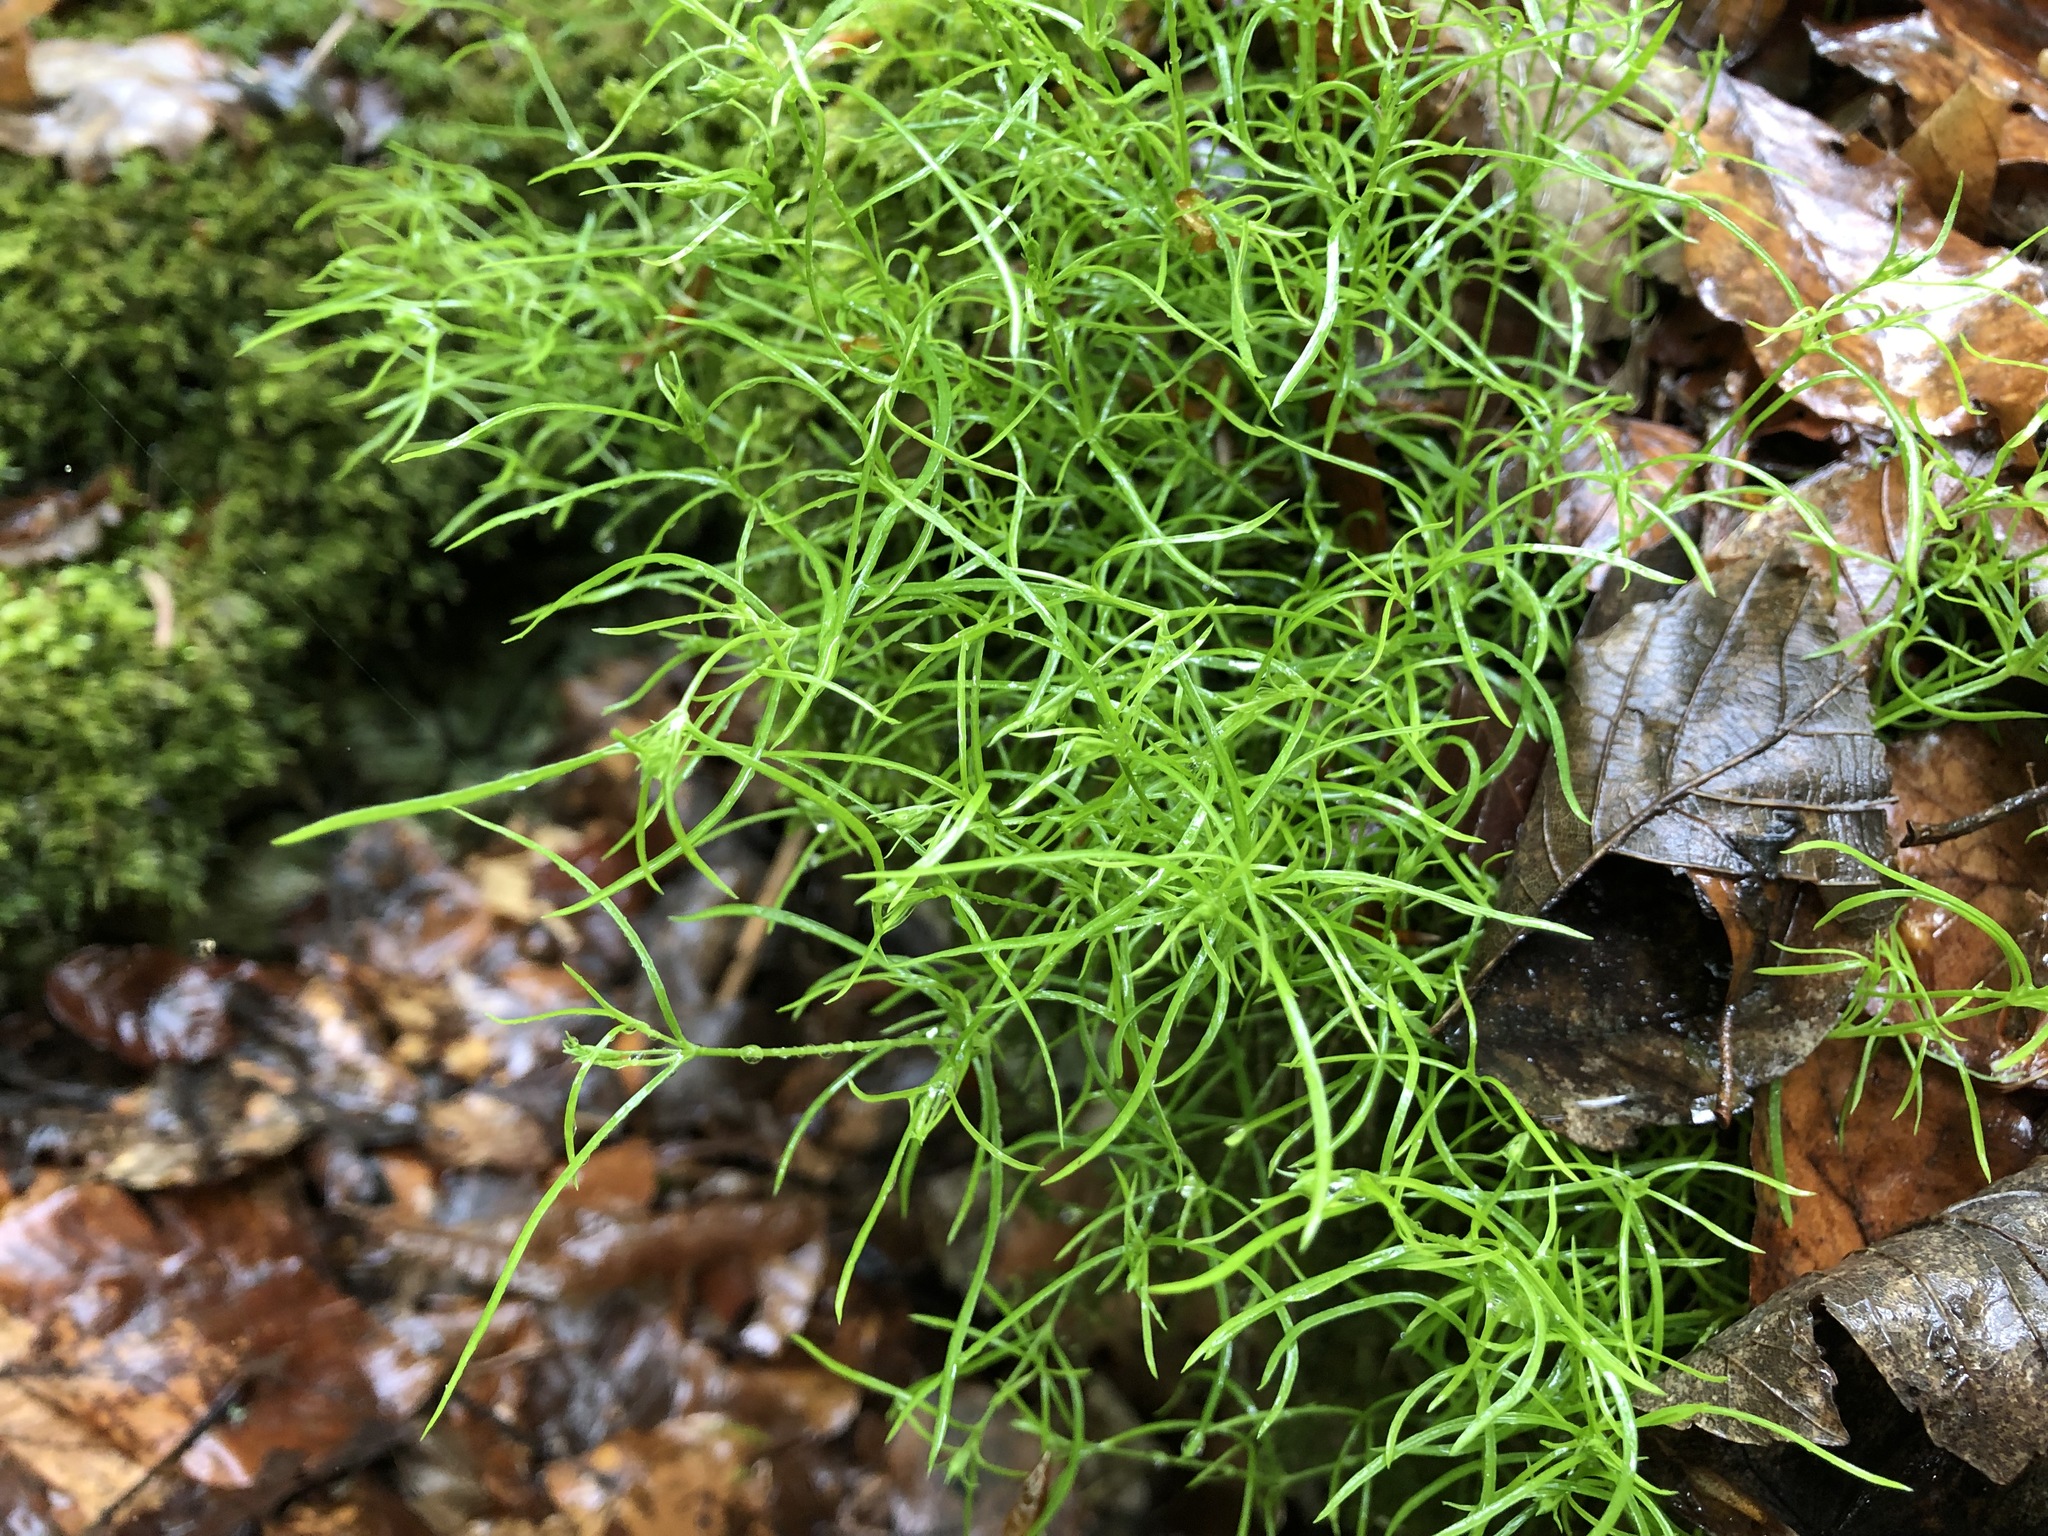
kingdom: Plantae
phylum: Tracheophyta
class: Magnoliopsida
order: Caryophyllales
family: Caryophyllaceae
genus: Moehringia
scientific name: Moehringia muscosa
